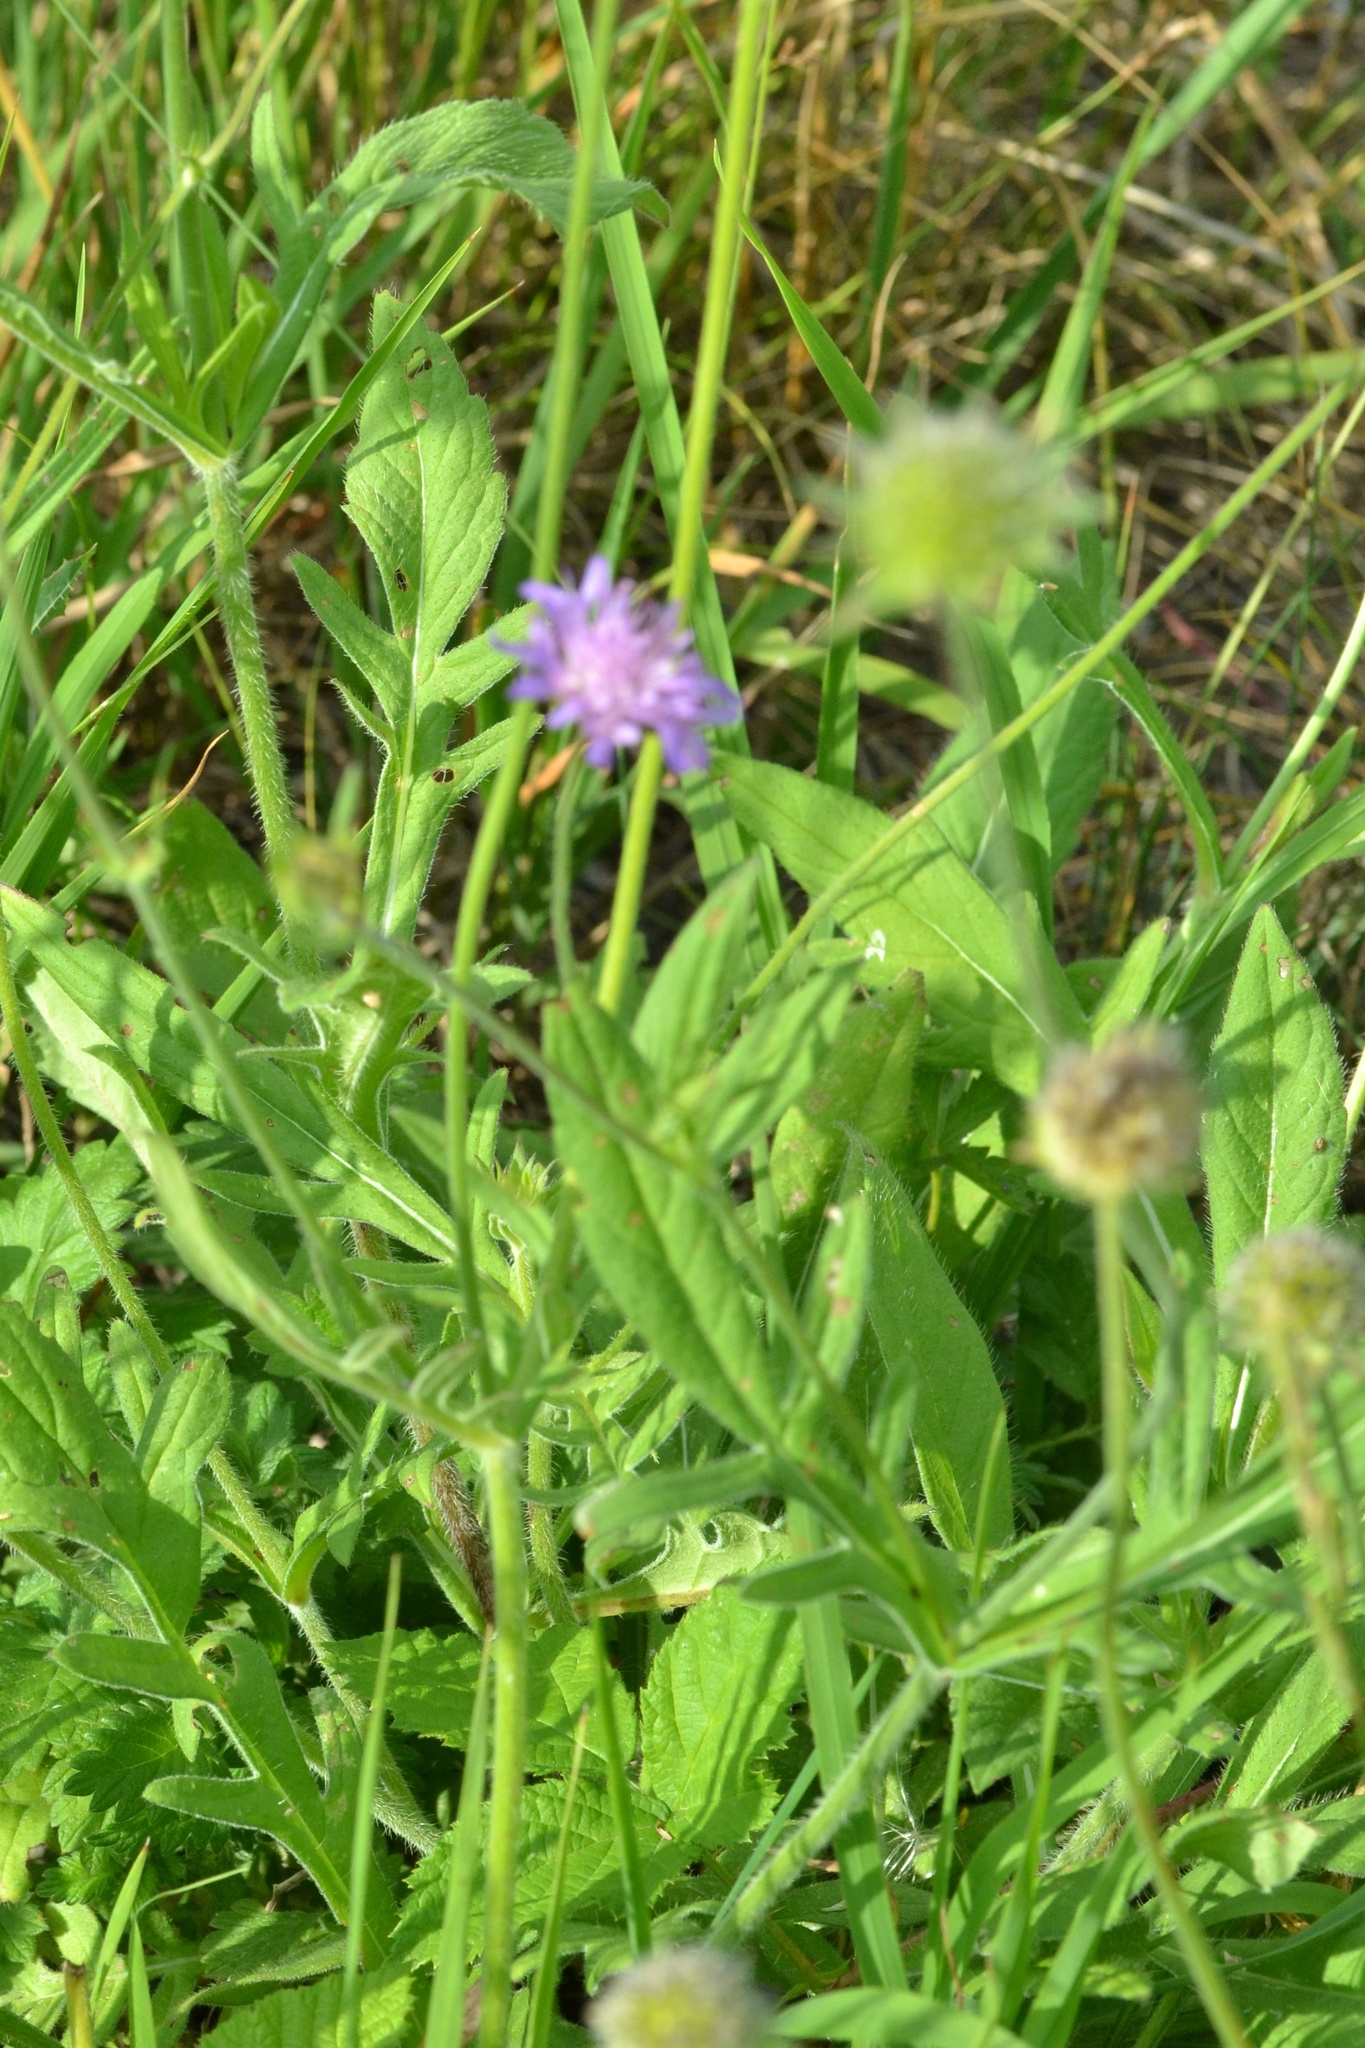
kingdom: Plantae
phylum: Tracheophyta
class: Magnoliopsida
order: Dipsacales
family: Caprifoliaceae
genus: Knautia
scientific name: Knautia arvensis
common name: Field scabiosa
